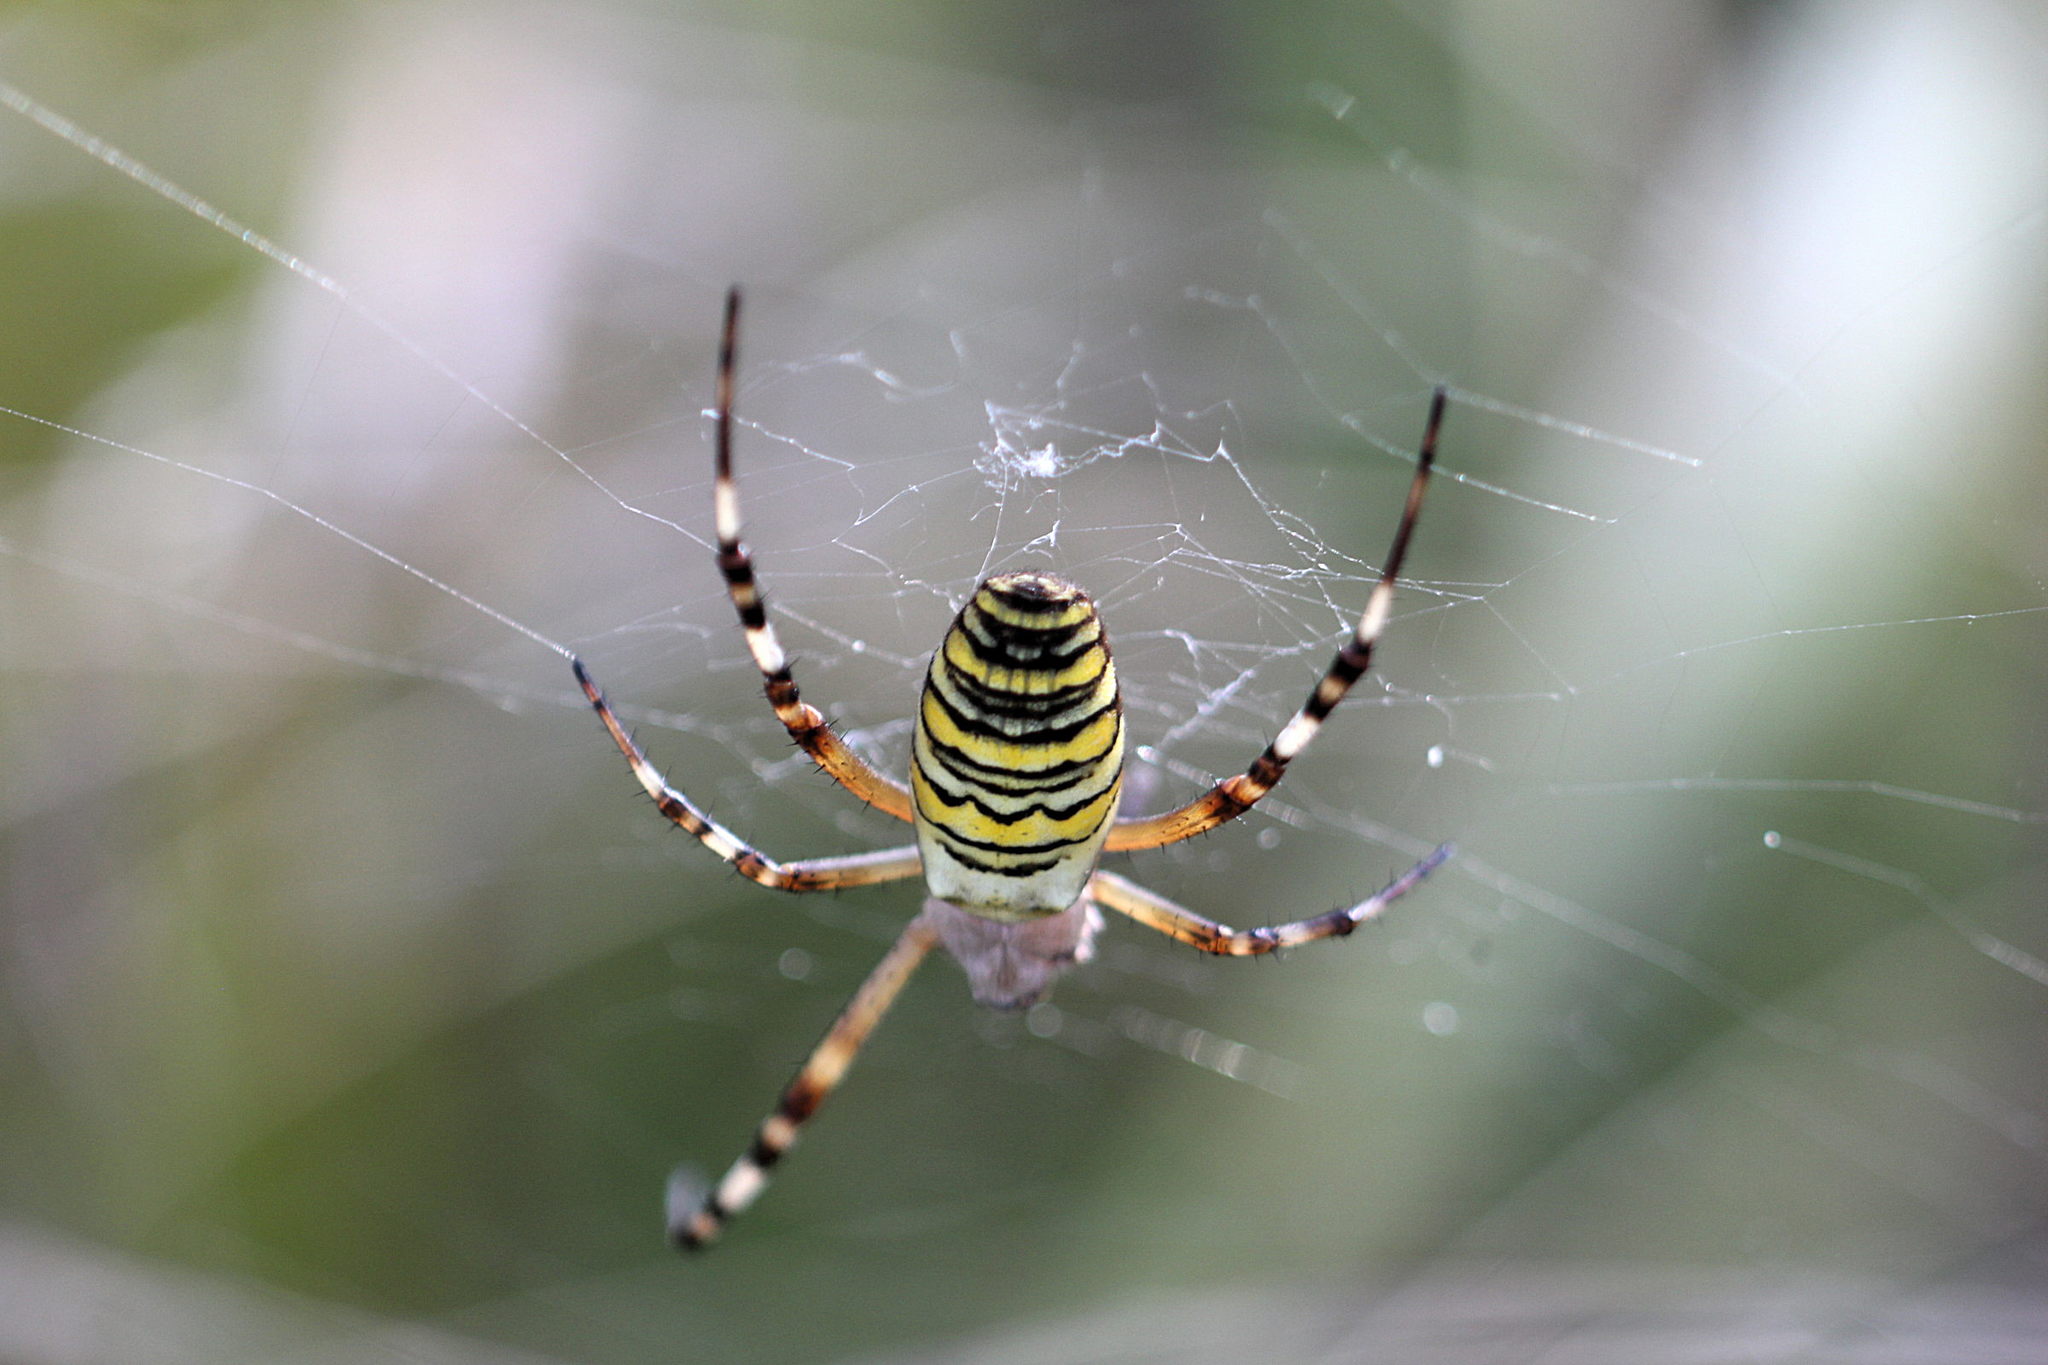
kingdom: Animalia
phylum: Arthropoda
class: Arachnida
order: Araneae
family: Araneidae
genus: Argiope
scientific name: Argiope bruennichi
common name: Wasp spider
